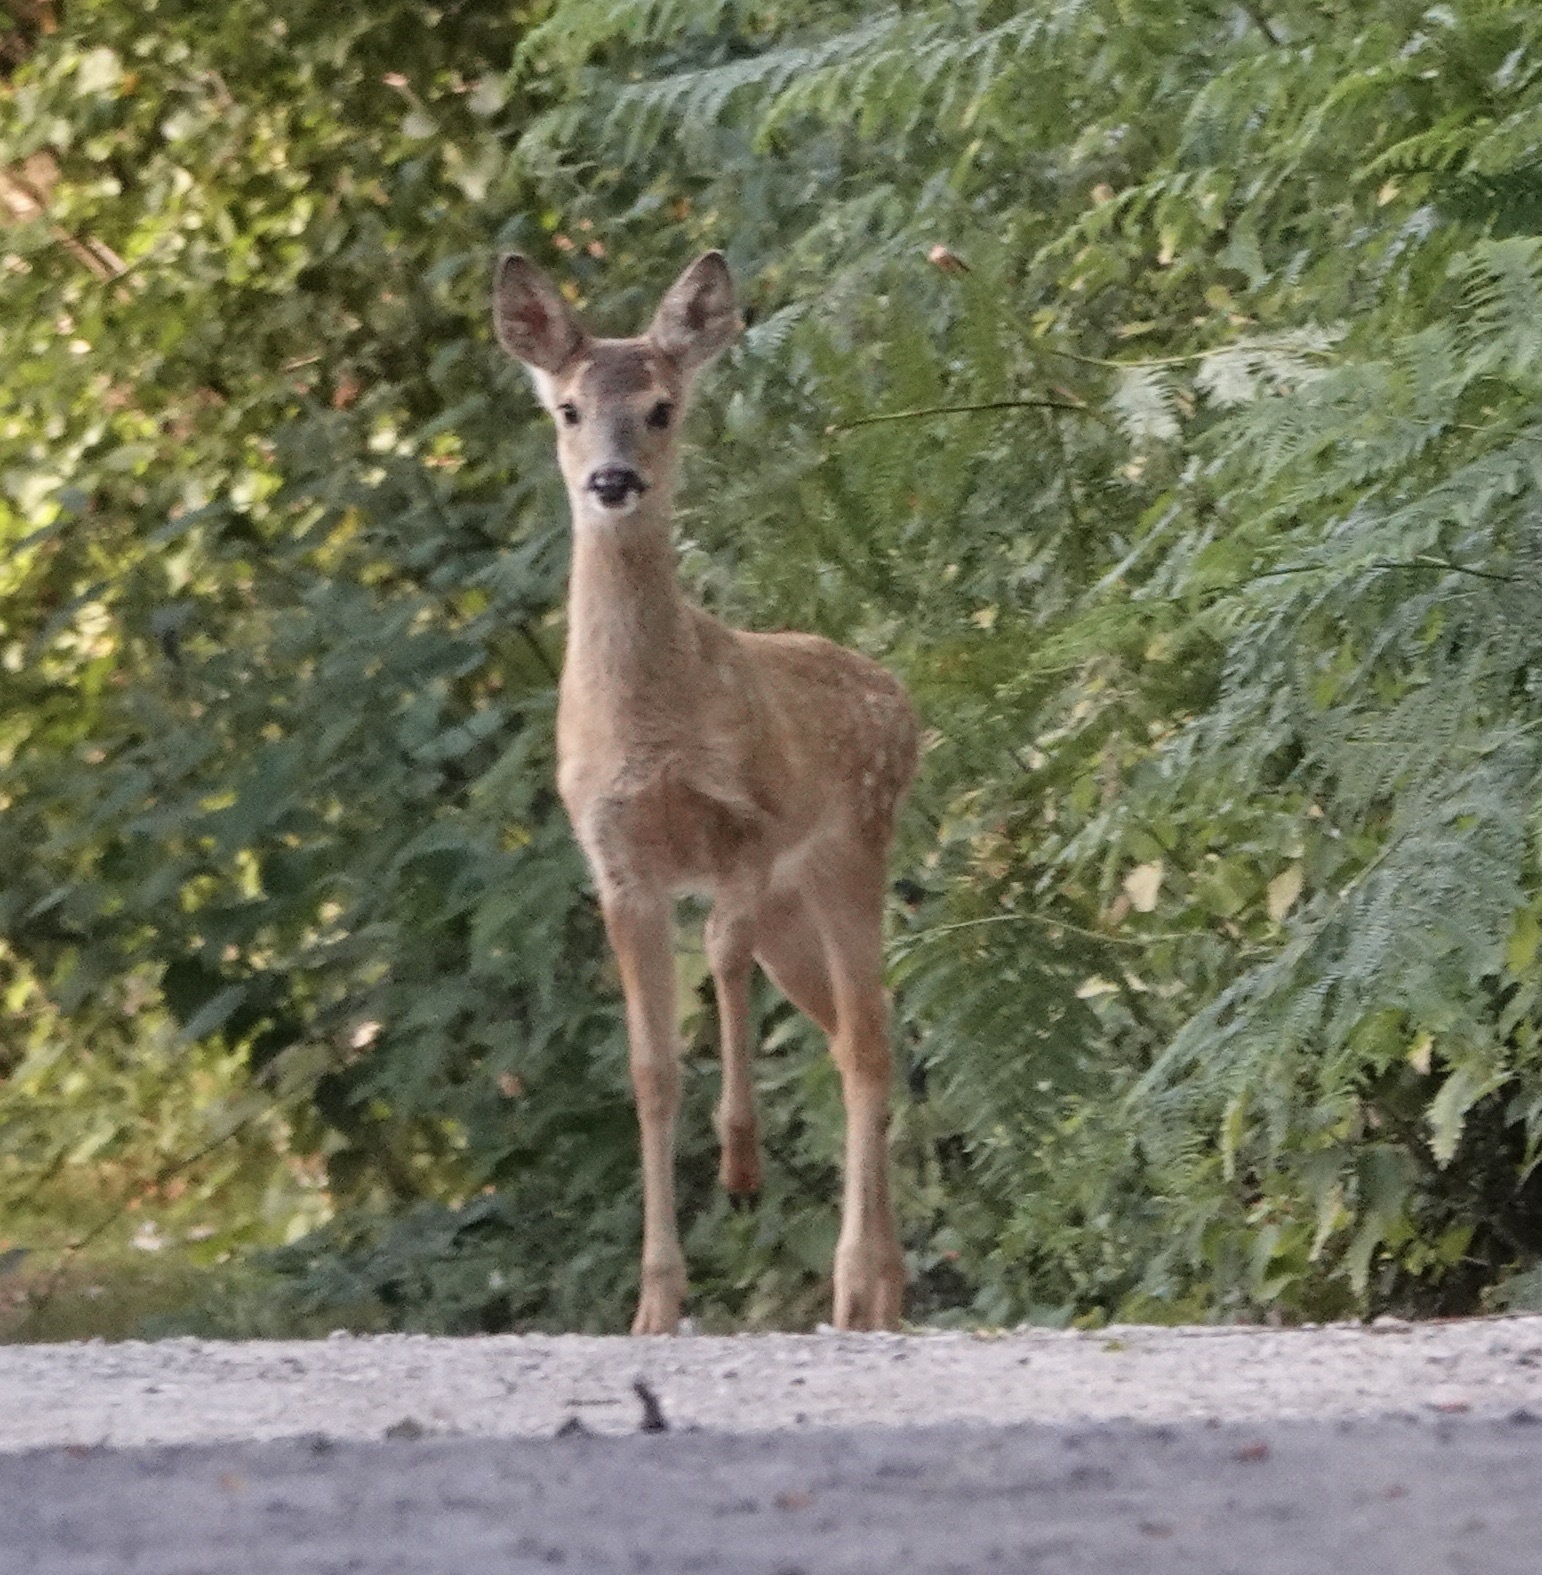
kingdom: Animalia
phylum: Chordata
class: Mammalia
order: Artiodactyla
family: Cervidae
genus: Capreolus
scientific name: Capreolus capreolus
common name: Western roe deer
